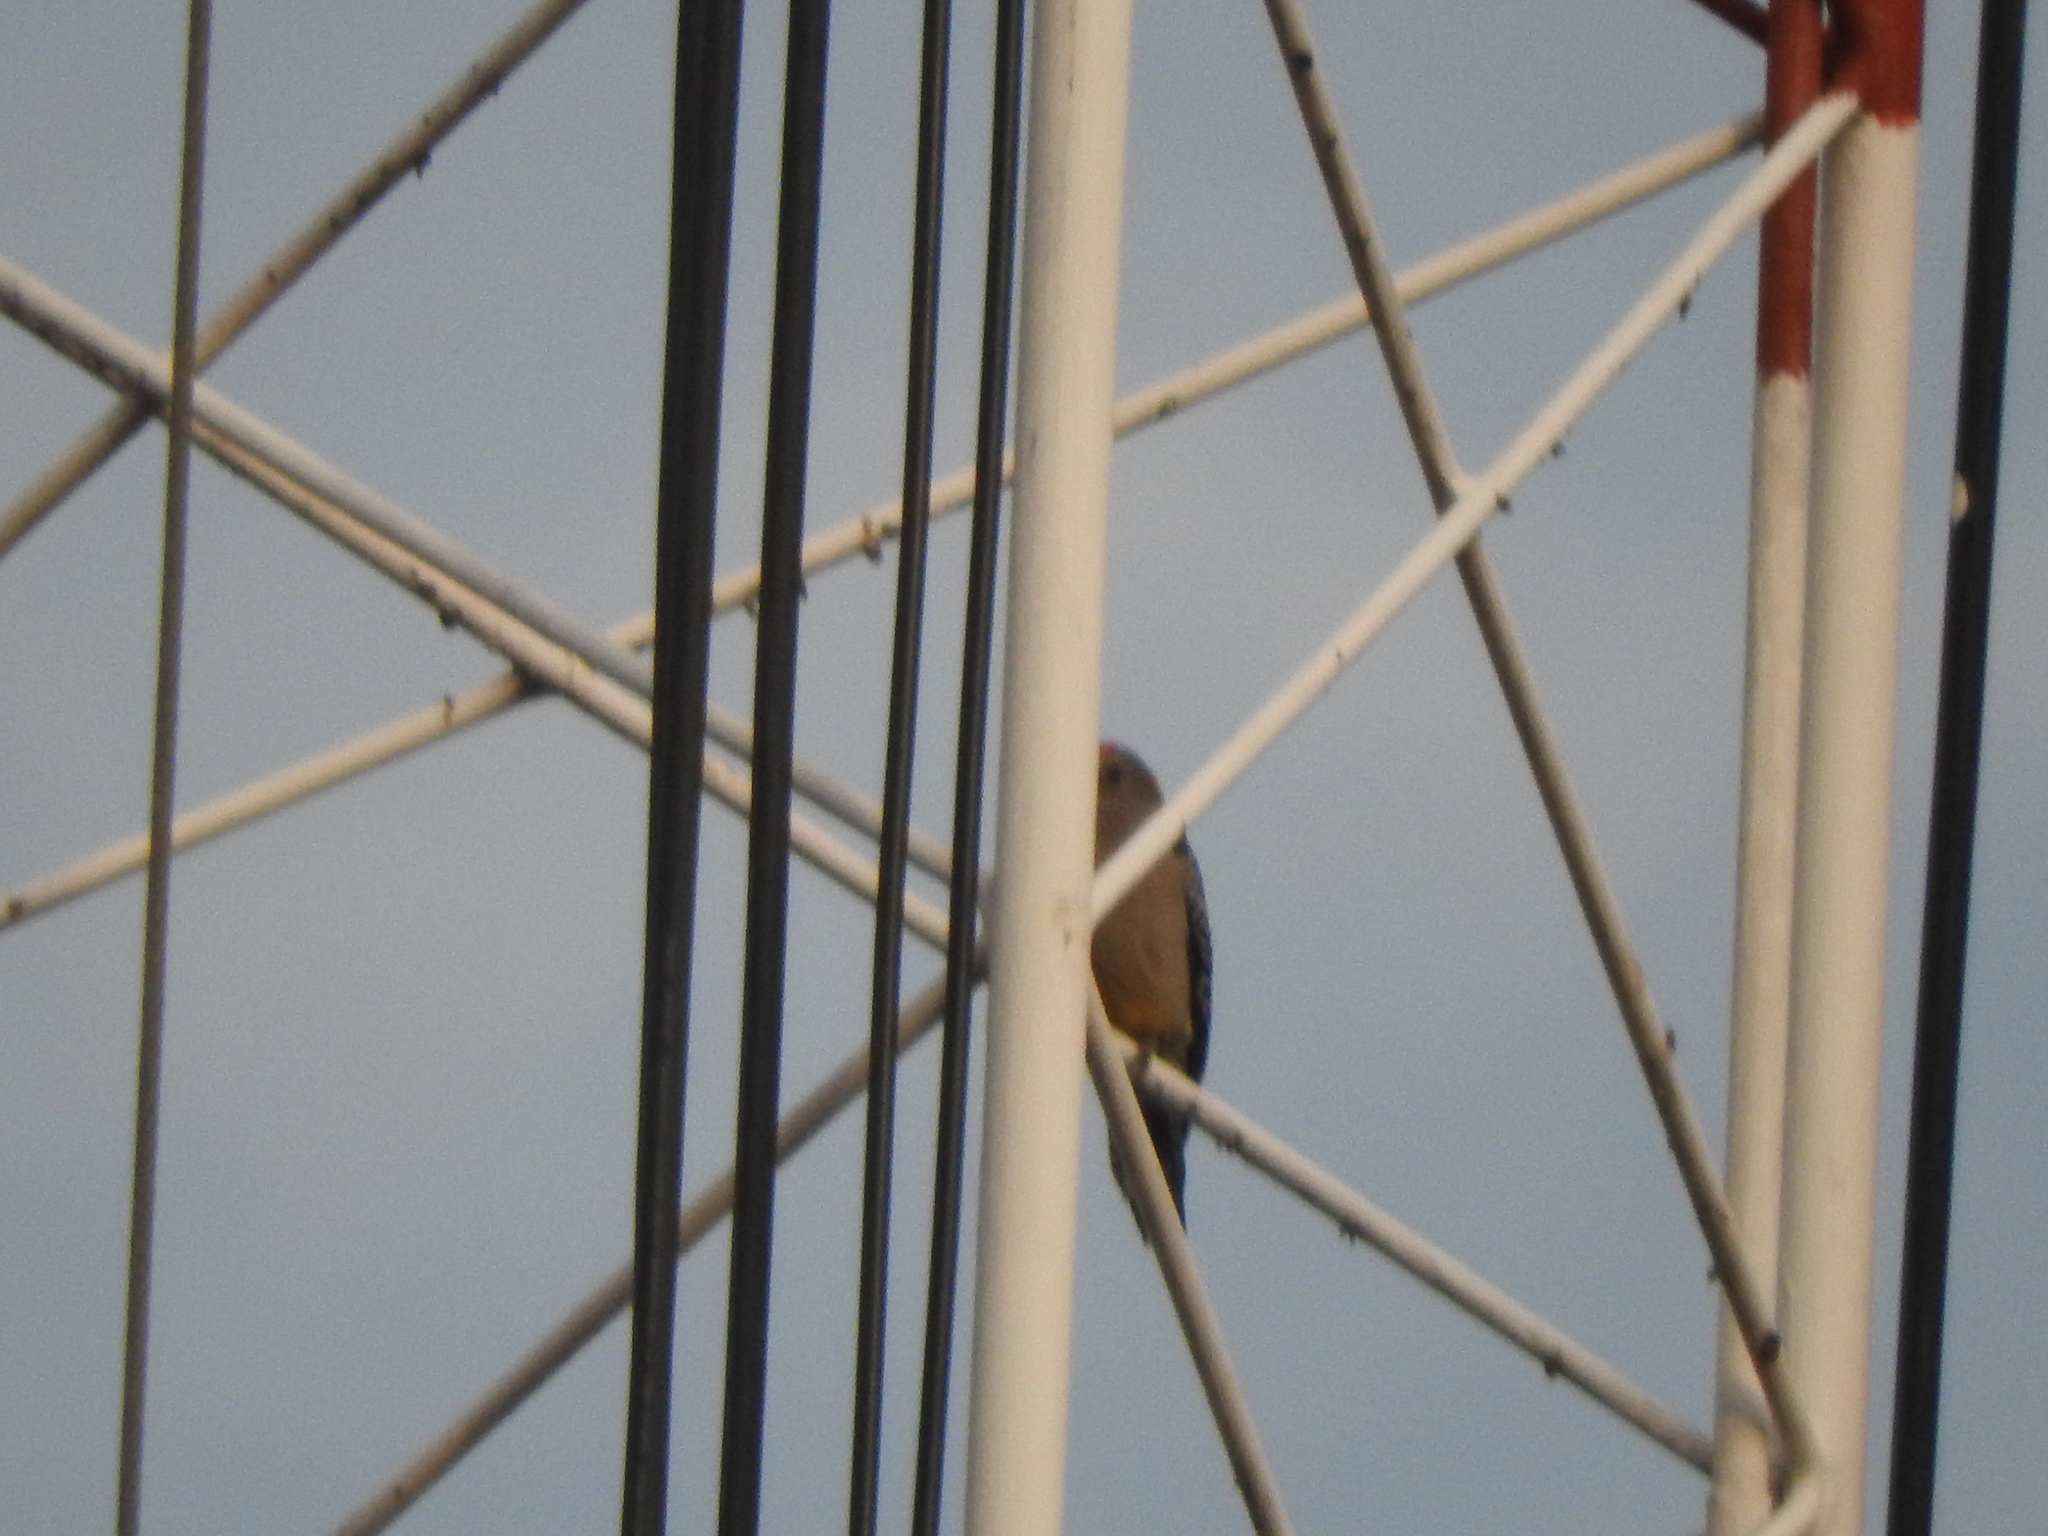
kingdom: Animalia
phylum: Chordata
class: Aves
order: Piciformes
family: Picidae
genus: Melanerpes
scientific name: Melanerpes aurifrons
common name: Golden-fronted woodpecker
